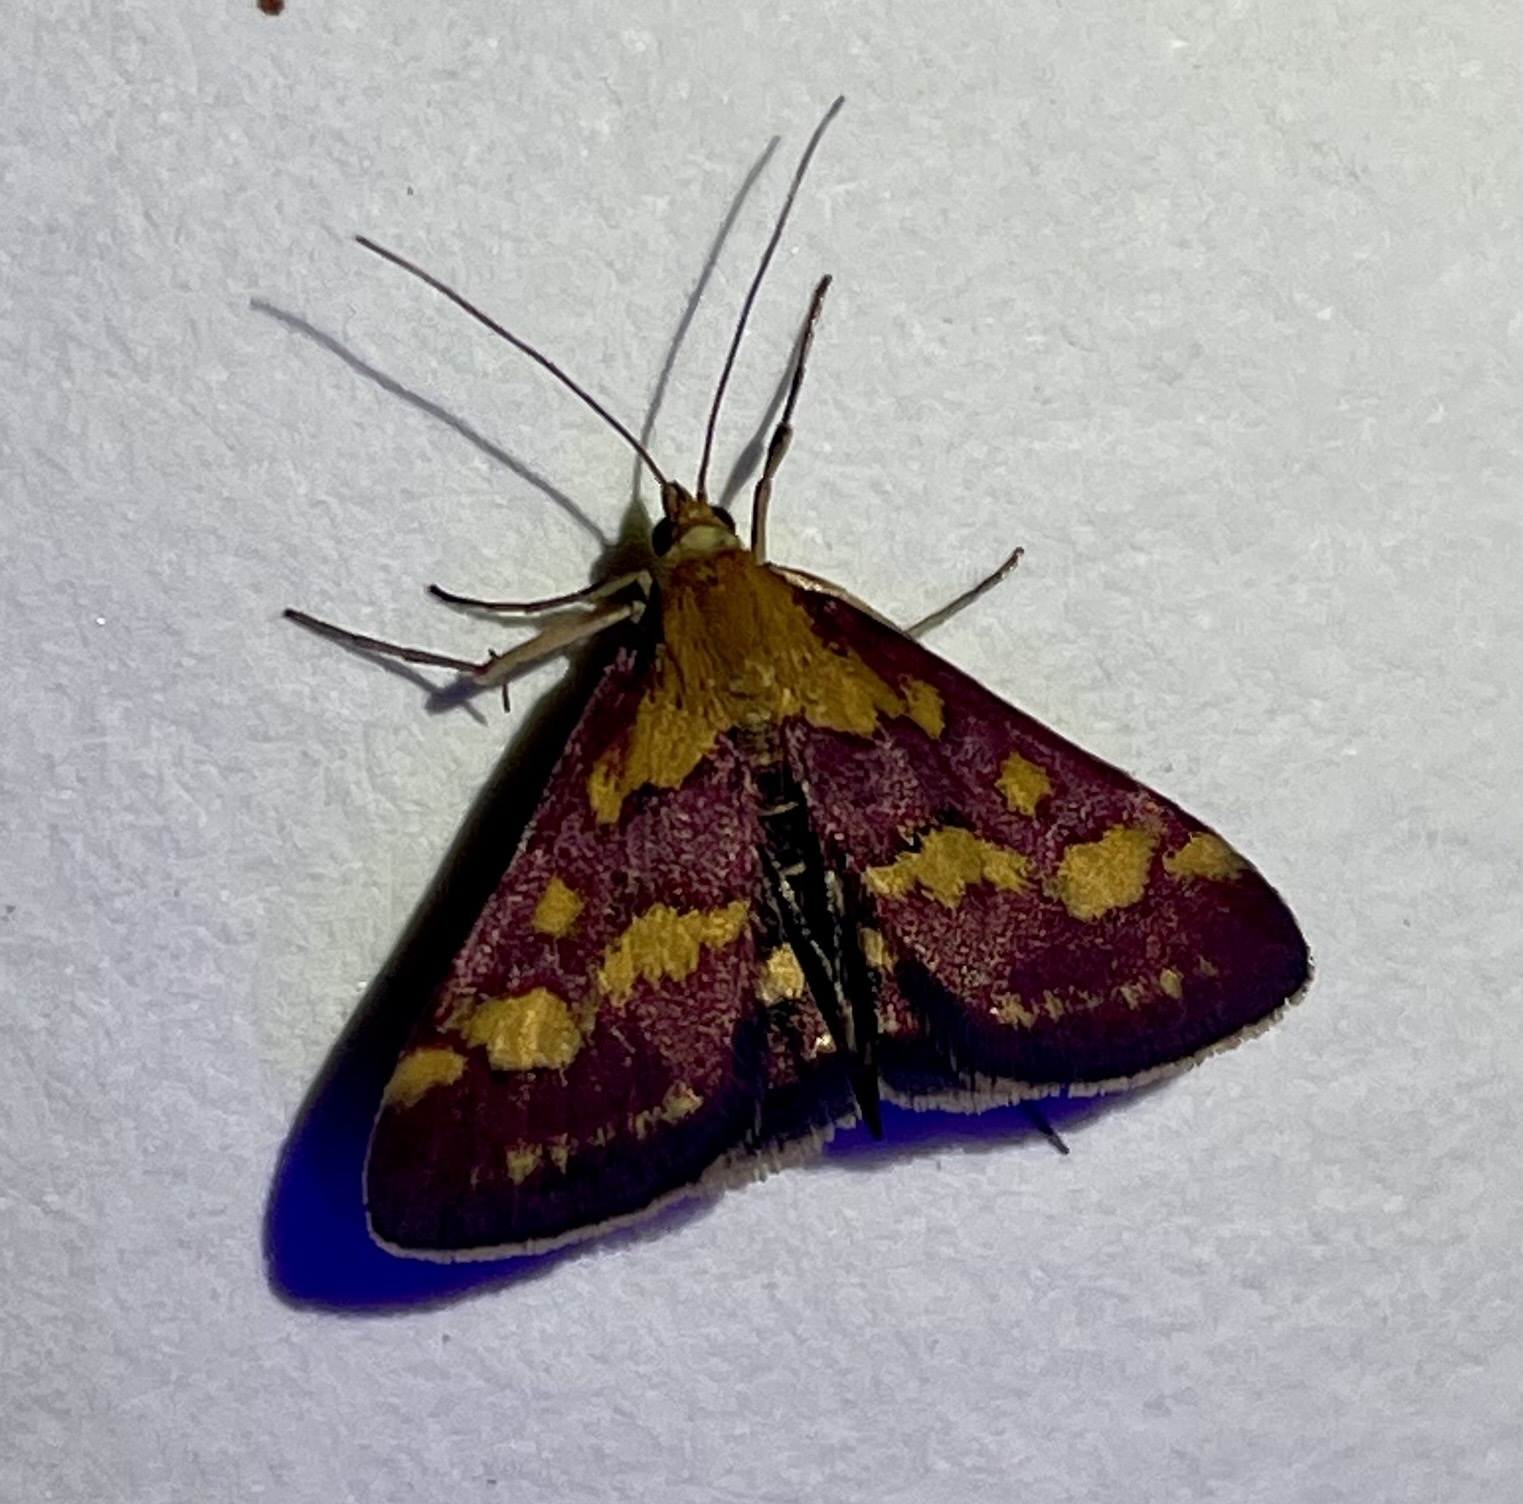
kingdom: Animalia
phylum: Arthropoda
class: Insecta
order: Lepidoptera
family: Crambidae
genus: Pyrausta
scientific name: Pyrausta purpuralis
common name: Common purple & gold
